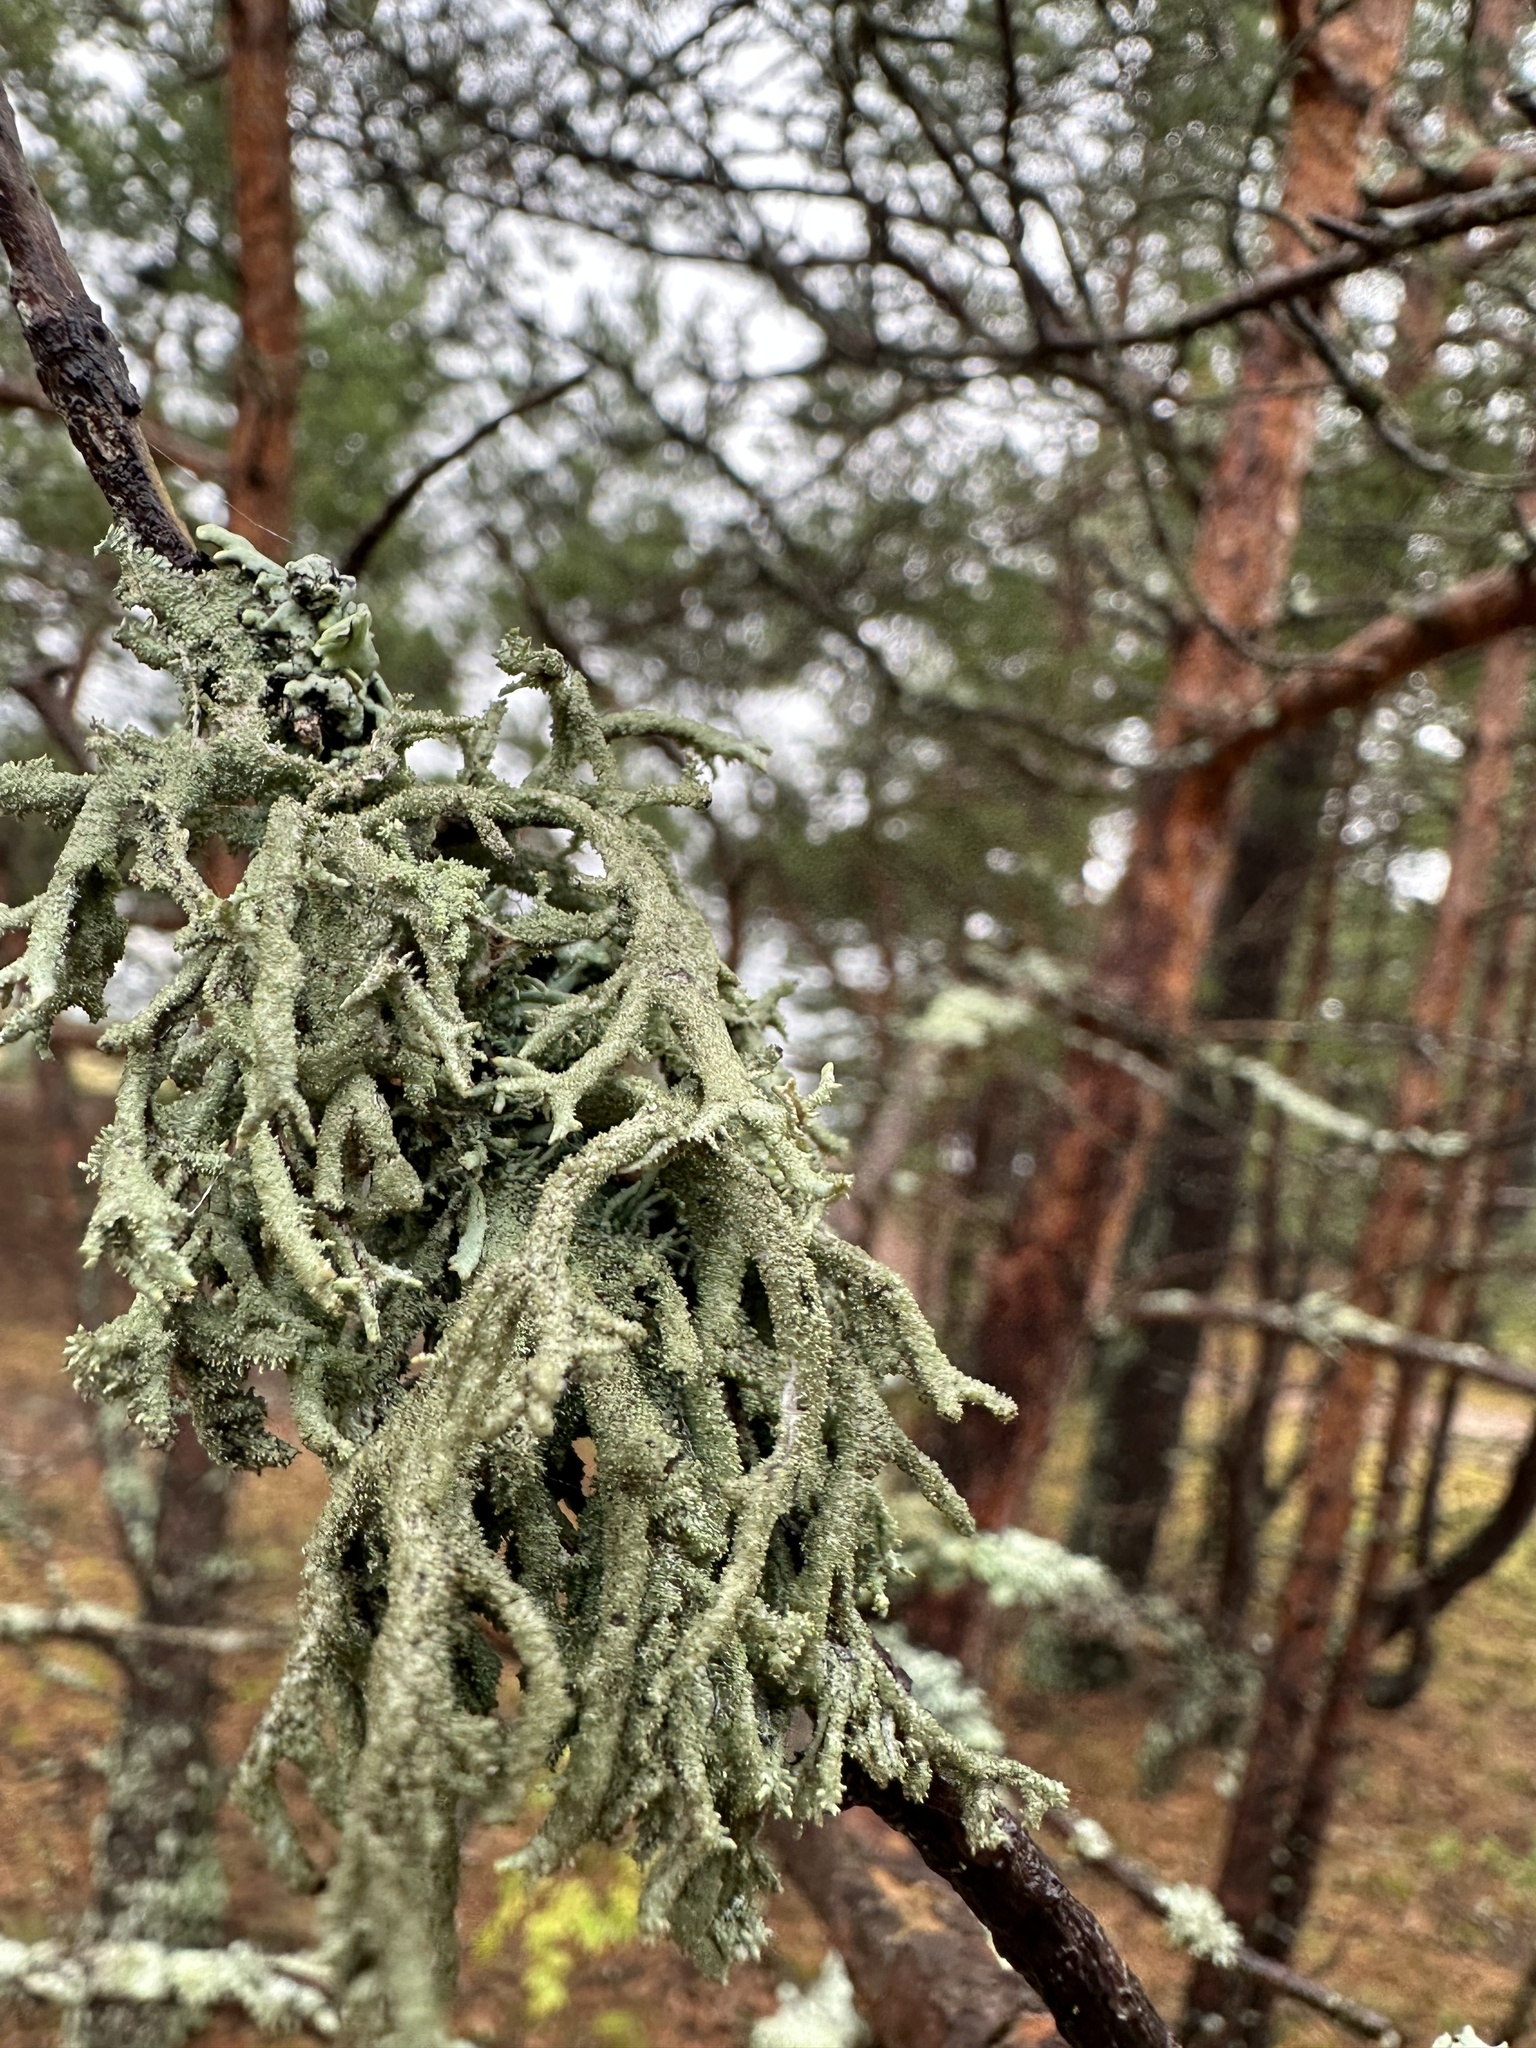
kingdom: Fungi
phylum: Ascomycota
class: Lecanoromycetes
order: Lecanorales
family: Parmeliaceae
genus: Pseudevernia
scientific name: Pseudevernia furfuracea
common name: Tree moss
